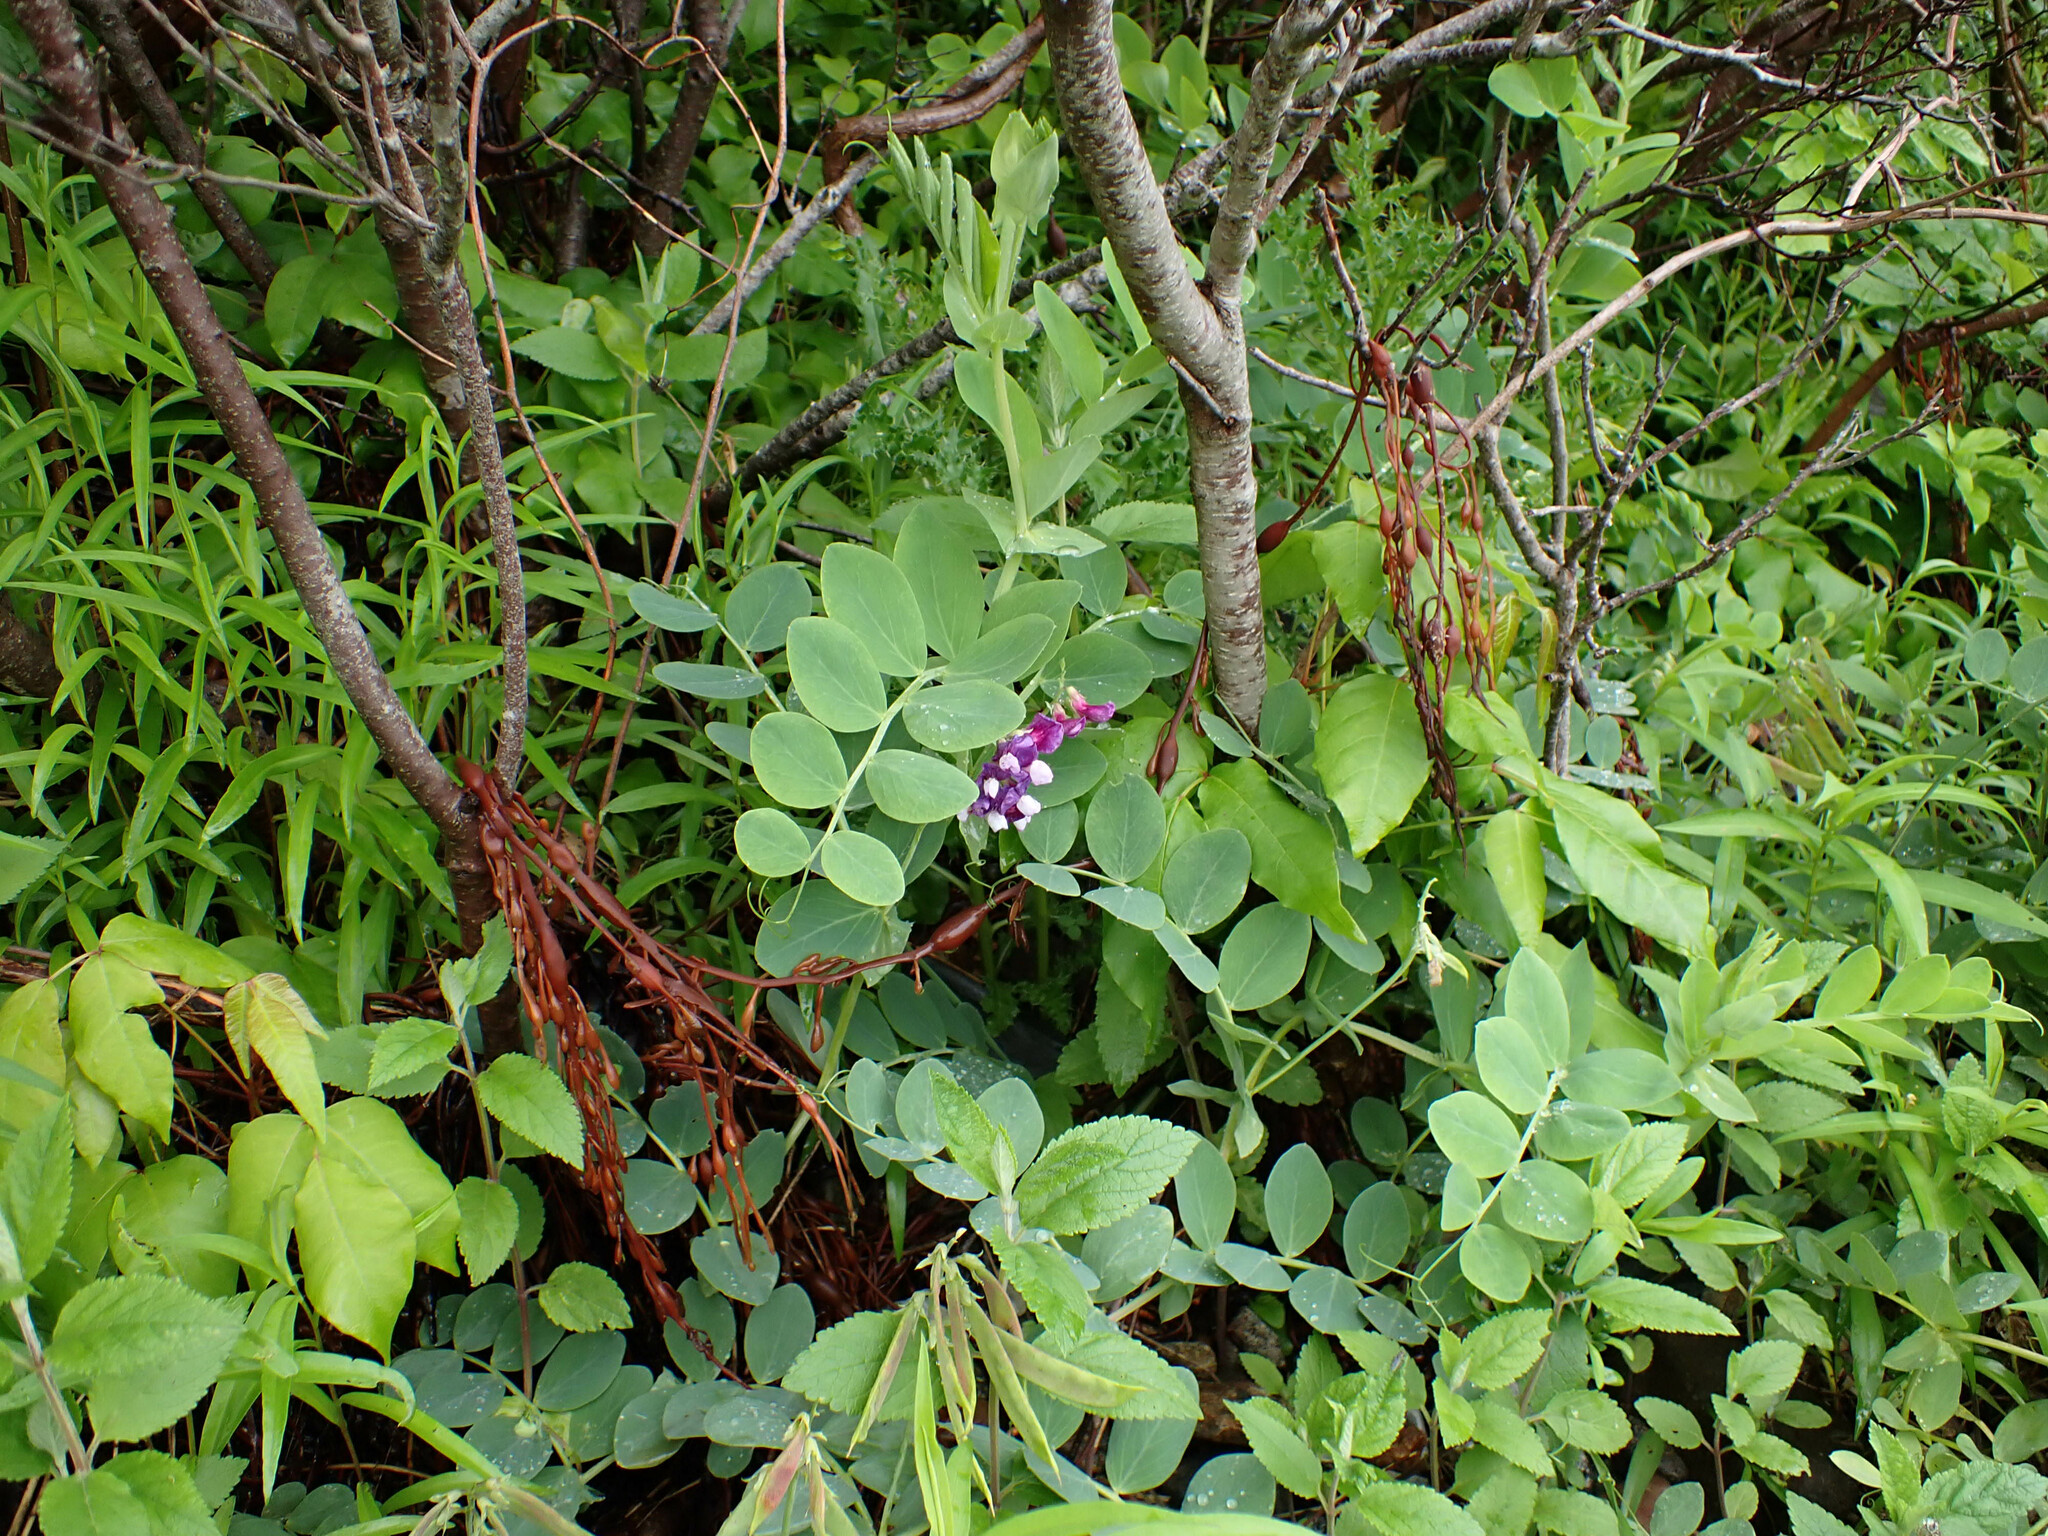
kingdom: Plantae
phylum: Tracheophyta
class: Magnoliopsida
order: Fabales
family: Fabaceae
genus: Lathyrus
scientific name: Lathyrus japonicus
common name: Sea pea
